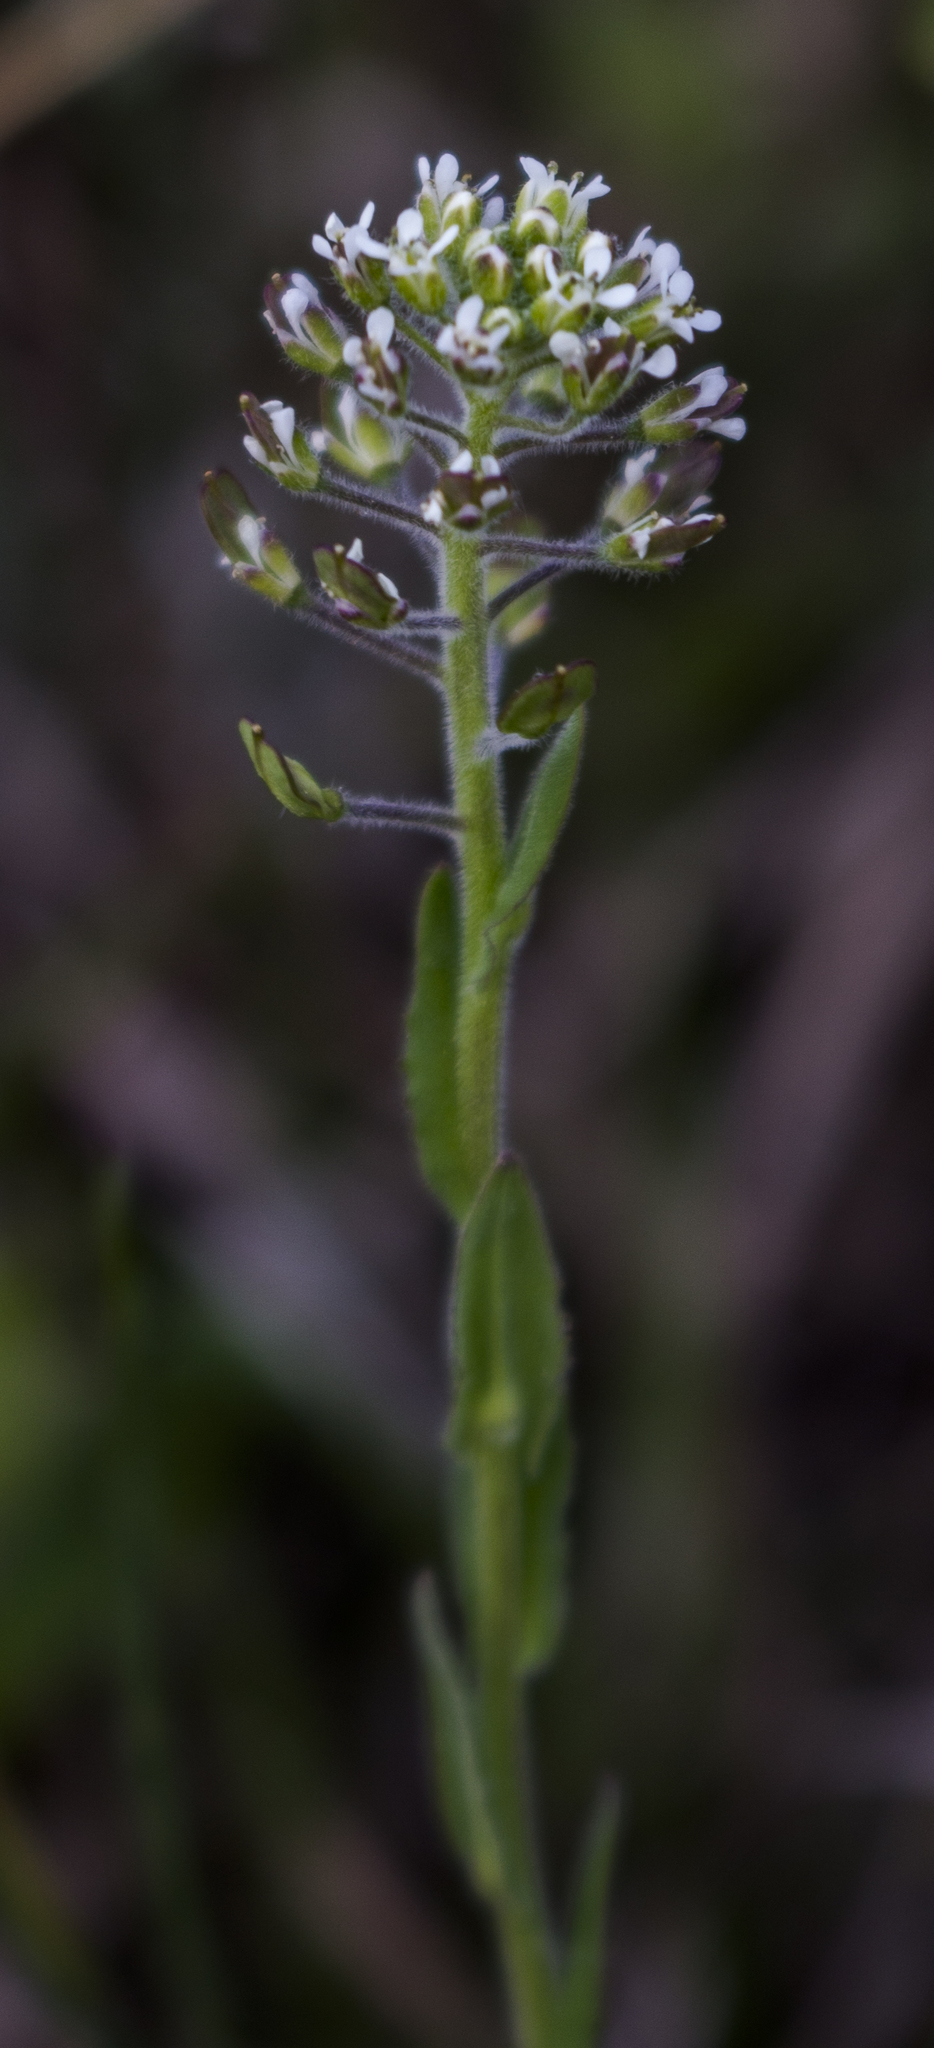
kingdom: Plantae
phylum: Tracheophyta
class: Magnoliopsida
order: Brassicales
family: Brassicaceae
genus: Lepidium
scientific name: Lepidium campestre
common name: Field pepperwort
